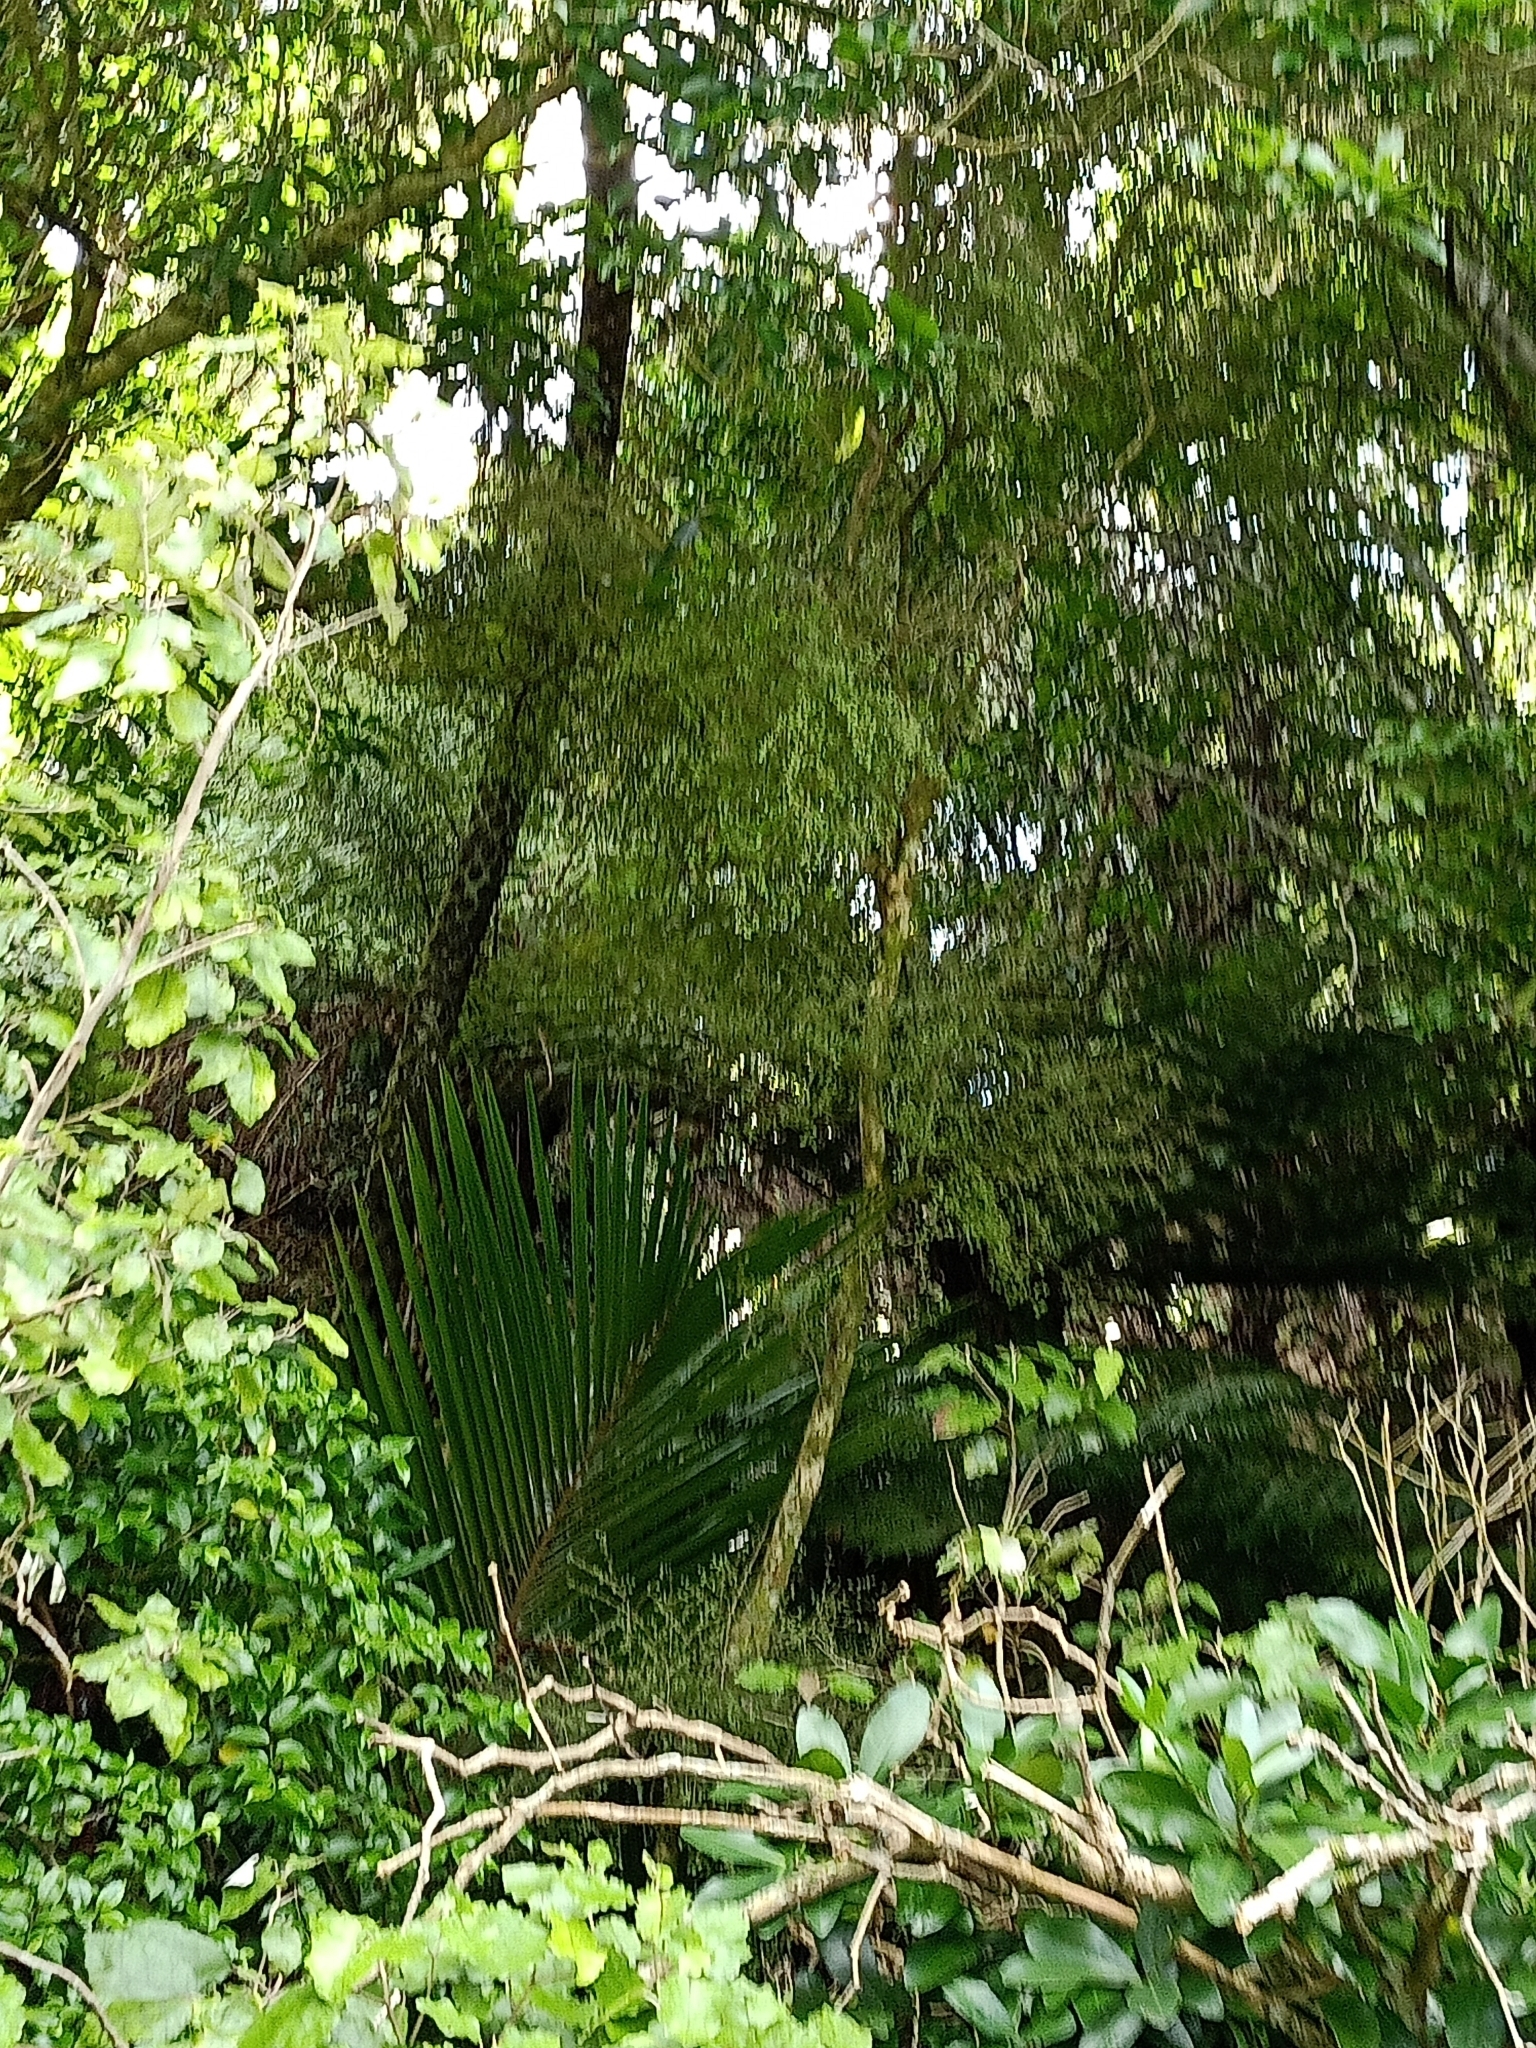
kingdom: Plantae
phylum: Tracheophyta
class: Liliopsida
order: Arecales
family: Arecaceae
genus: Rhopalostylis
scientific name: Rhopalostylis sapida
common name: Feather-duster palm
